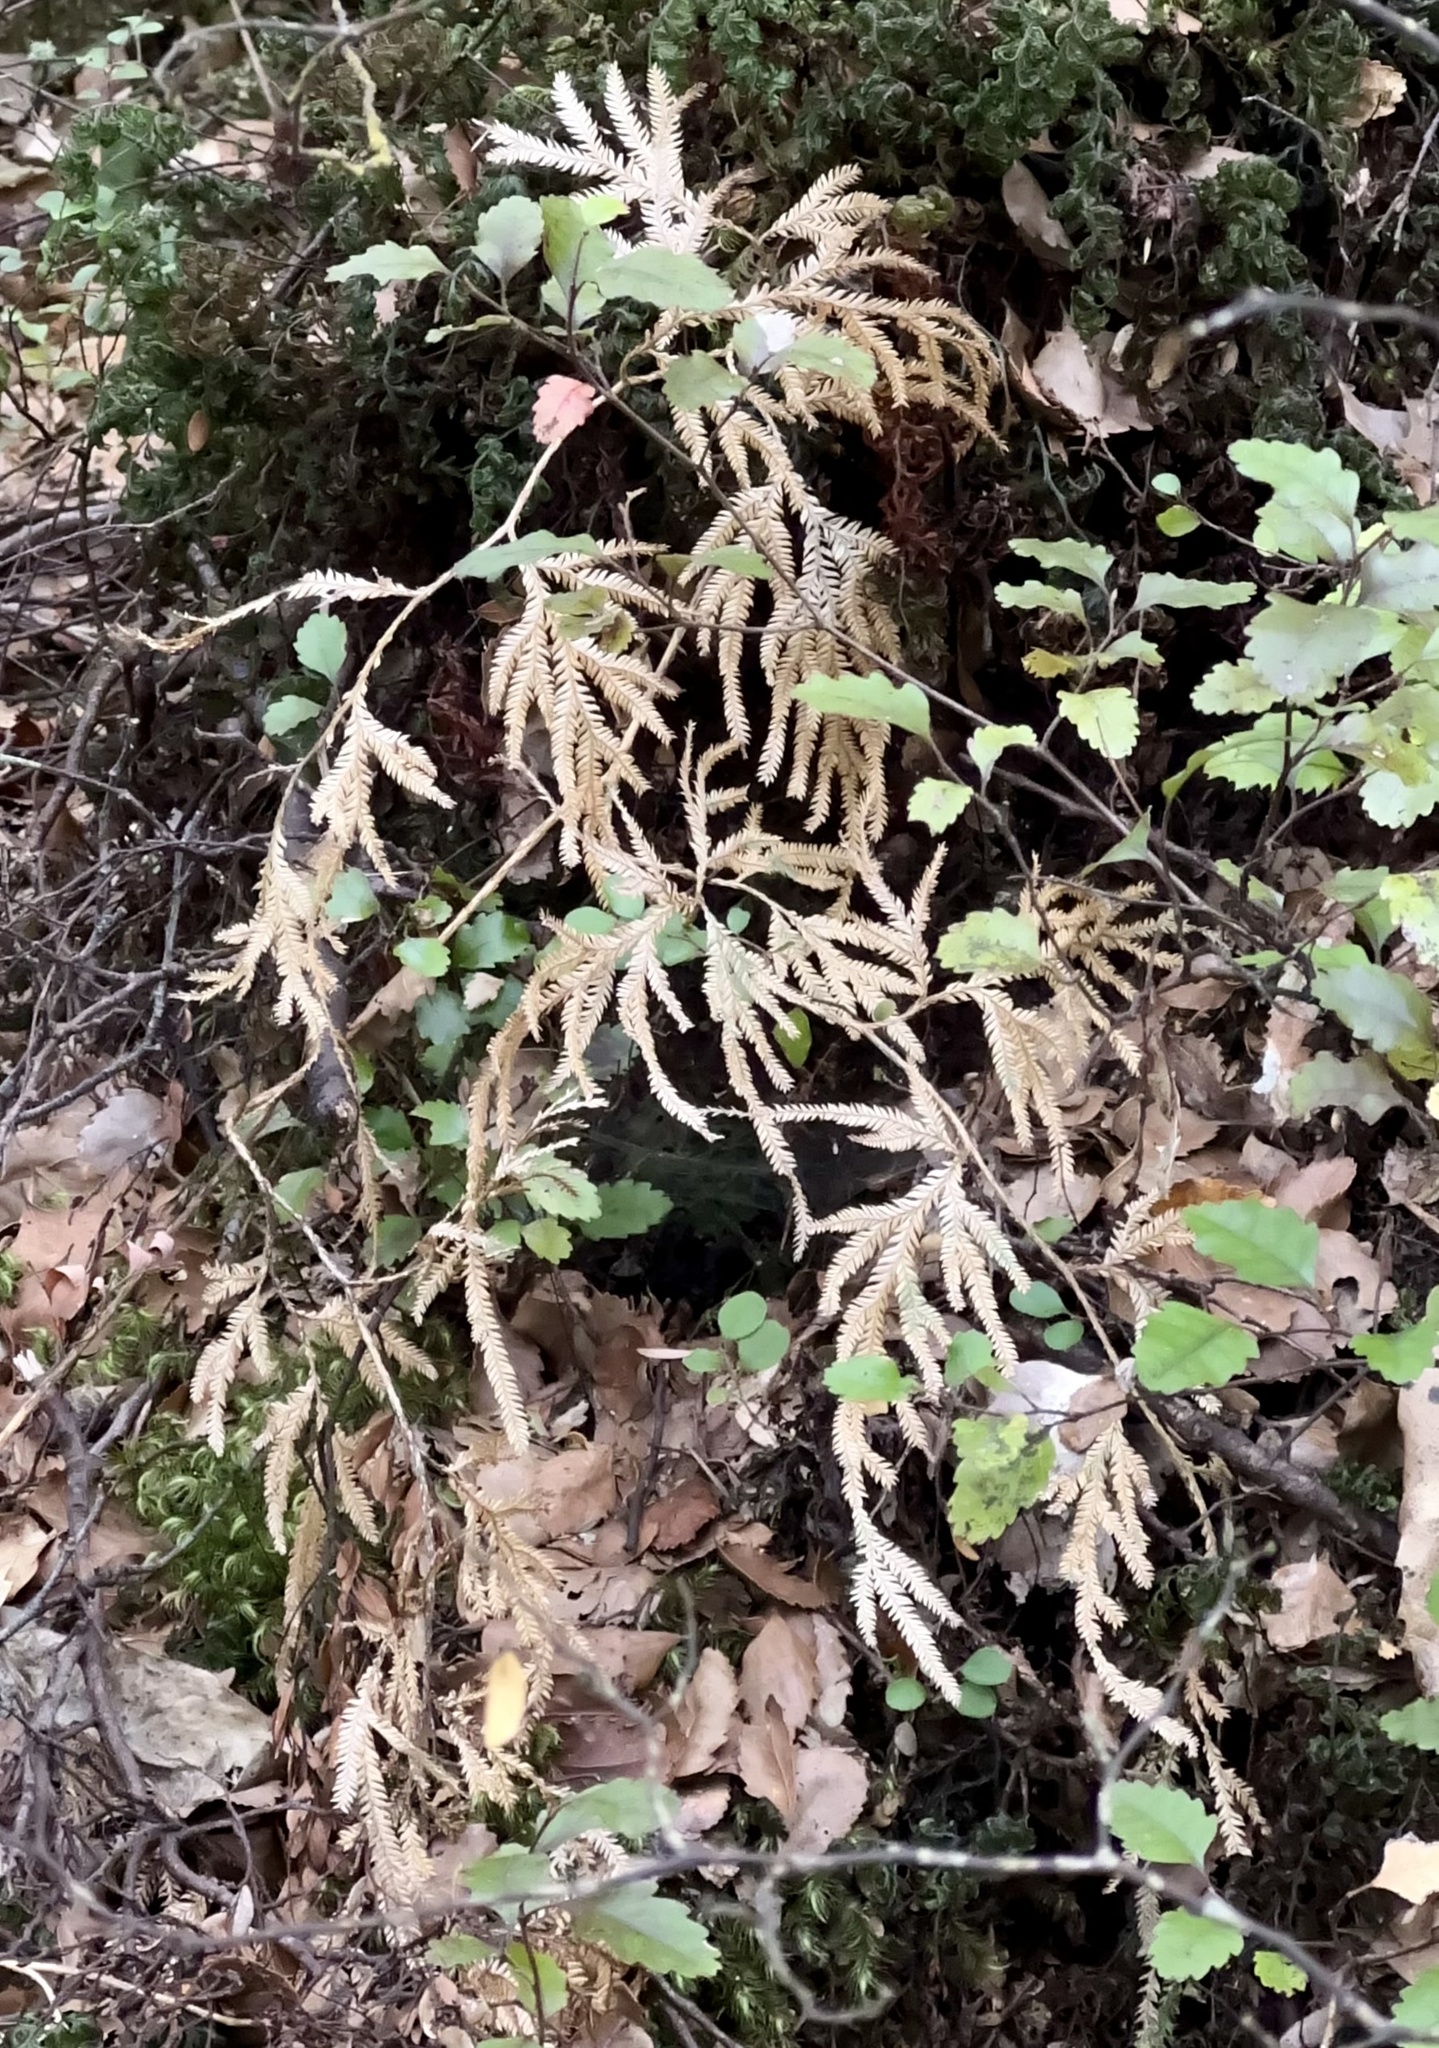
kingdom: Plantae
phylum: Tracheophyta
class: Lycopodiopsida
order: Lycopodiales
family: Lycopodiaceae
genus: Lycopodium
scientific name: Lycopodium volubile
